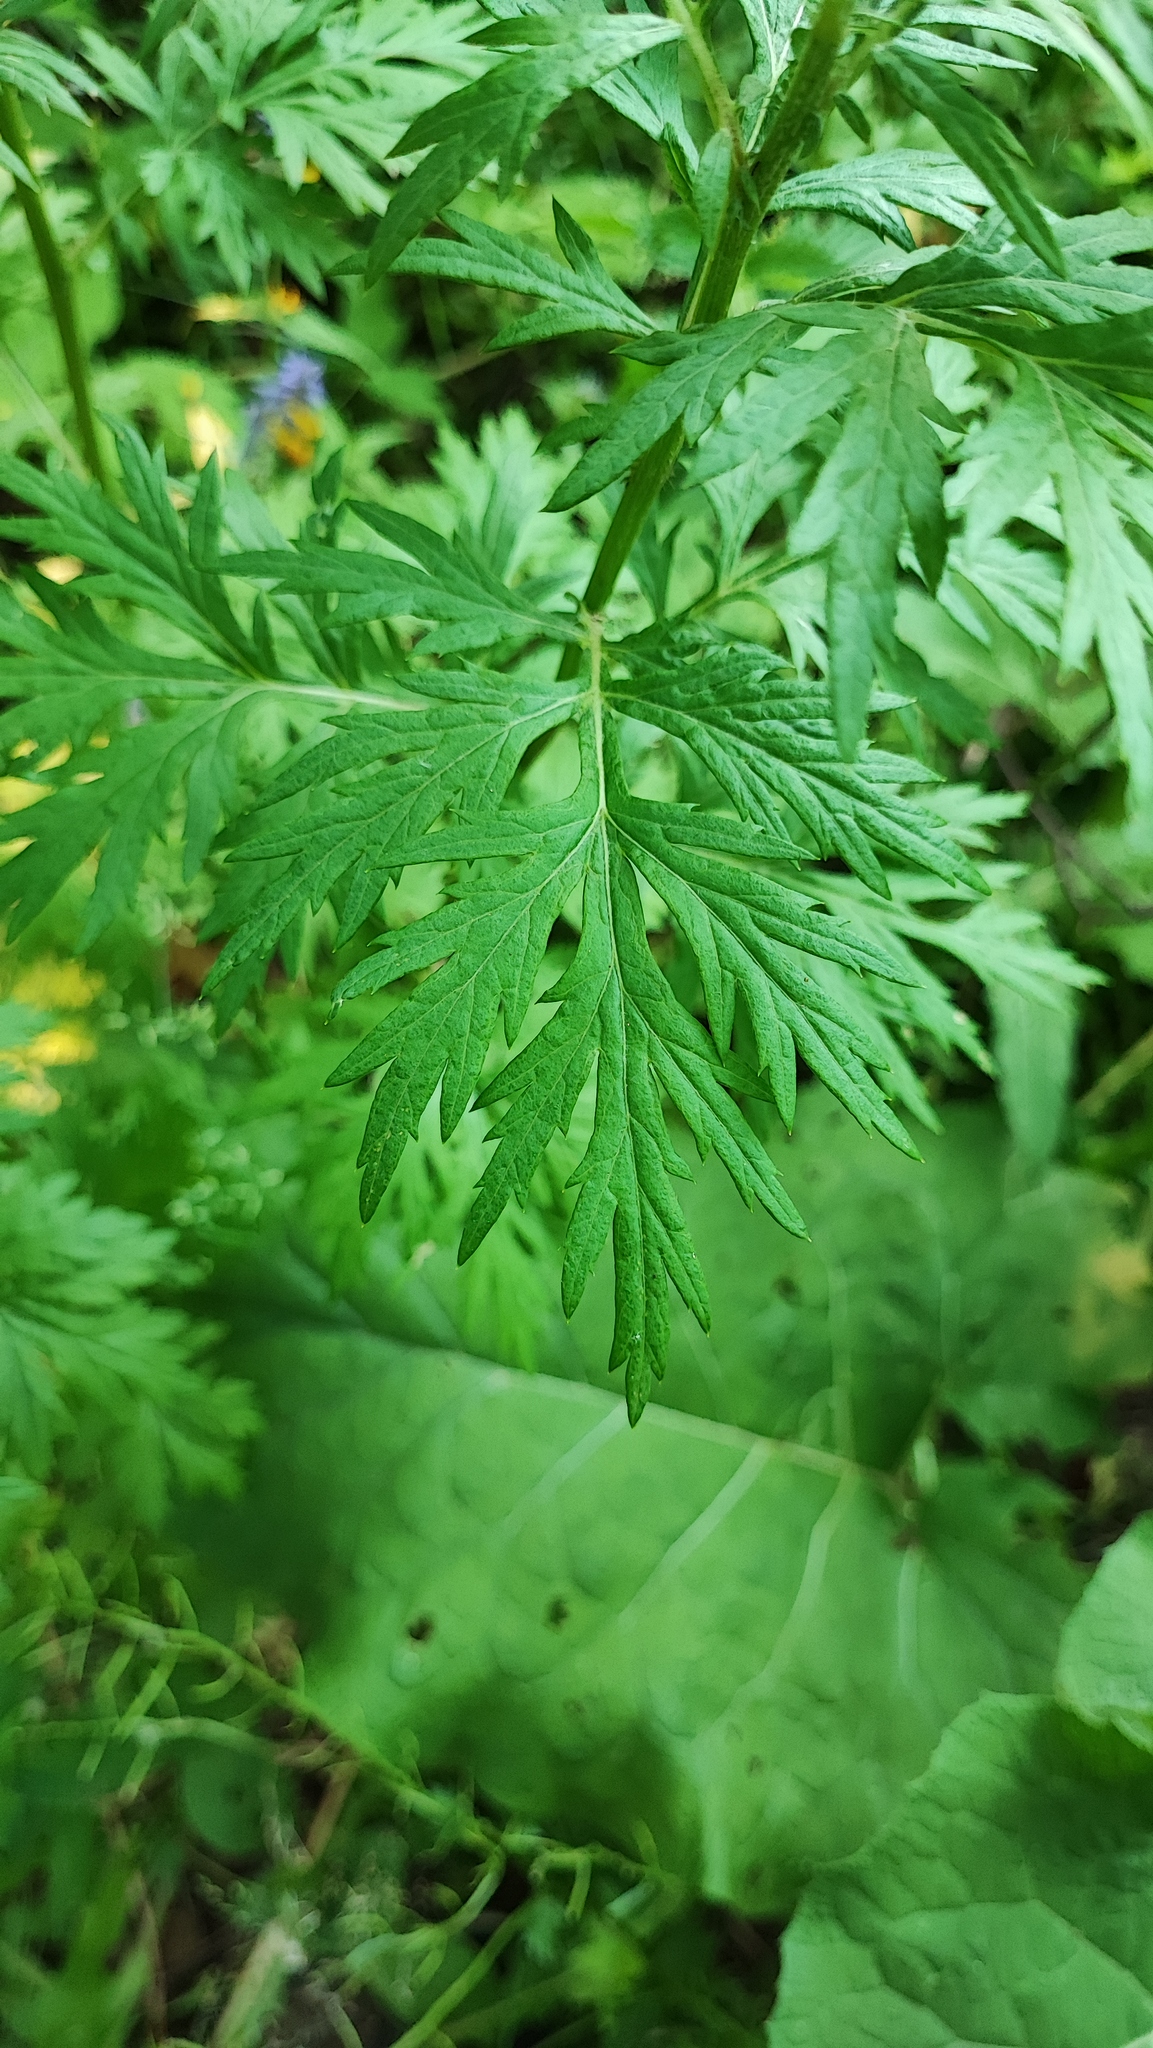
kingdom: Plantae
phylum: Tracheophyta
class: Magnoliopsida
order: Asterales
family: Asteraceae
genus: Artemisia
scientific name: Artemisia vulgaris
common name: Mugwort
